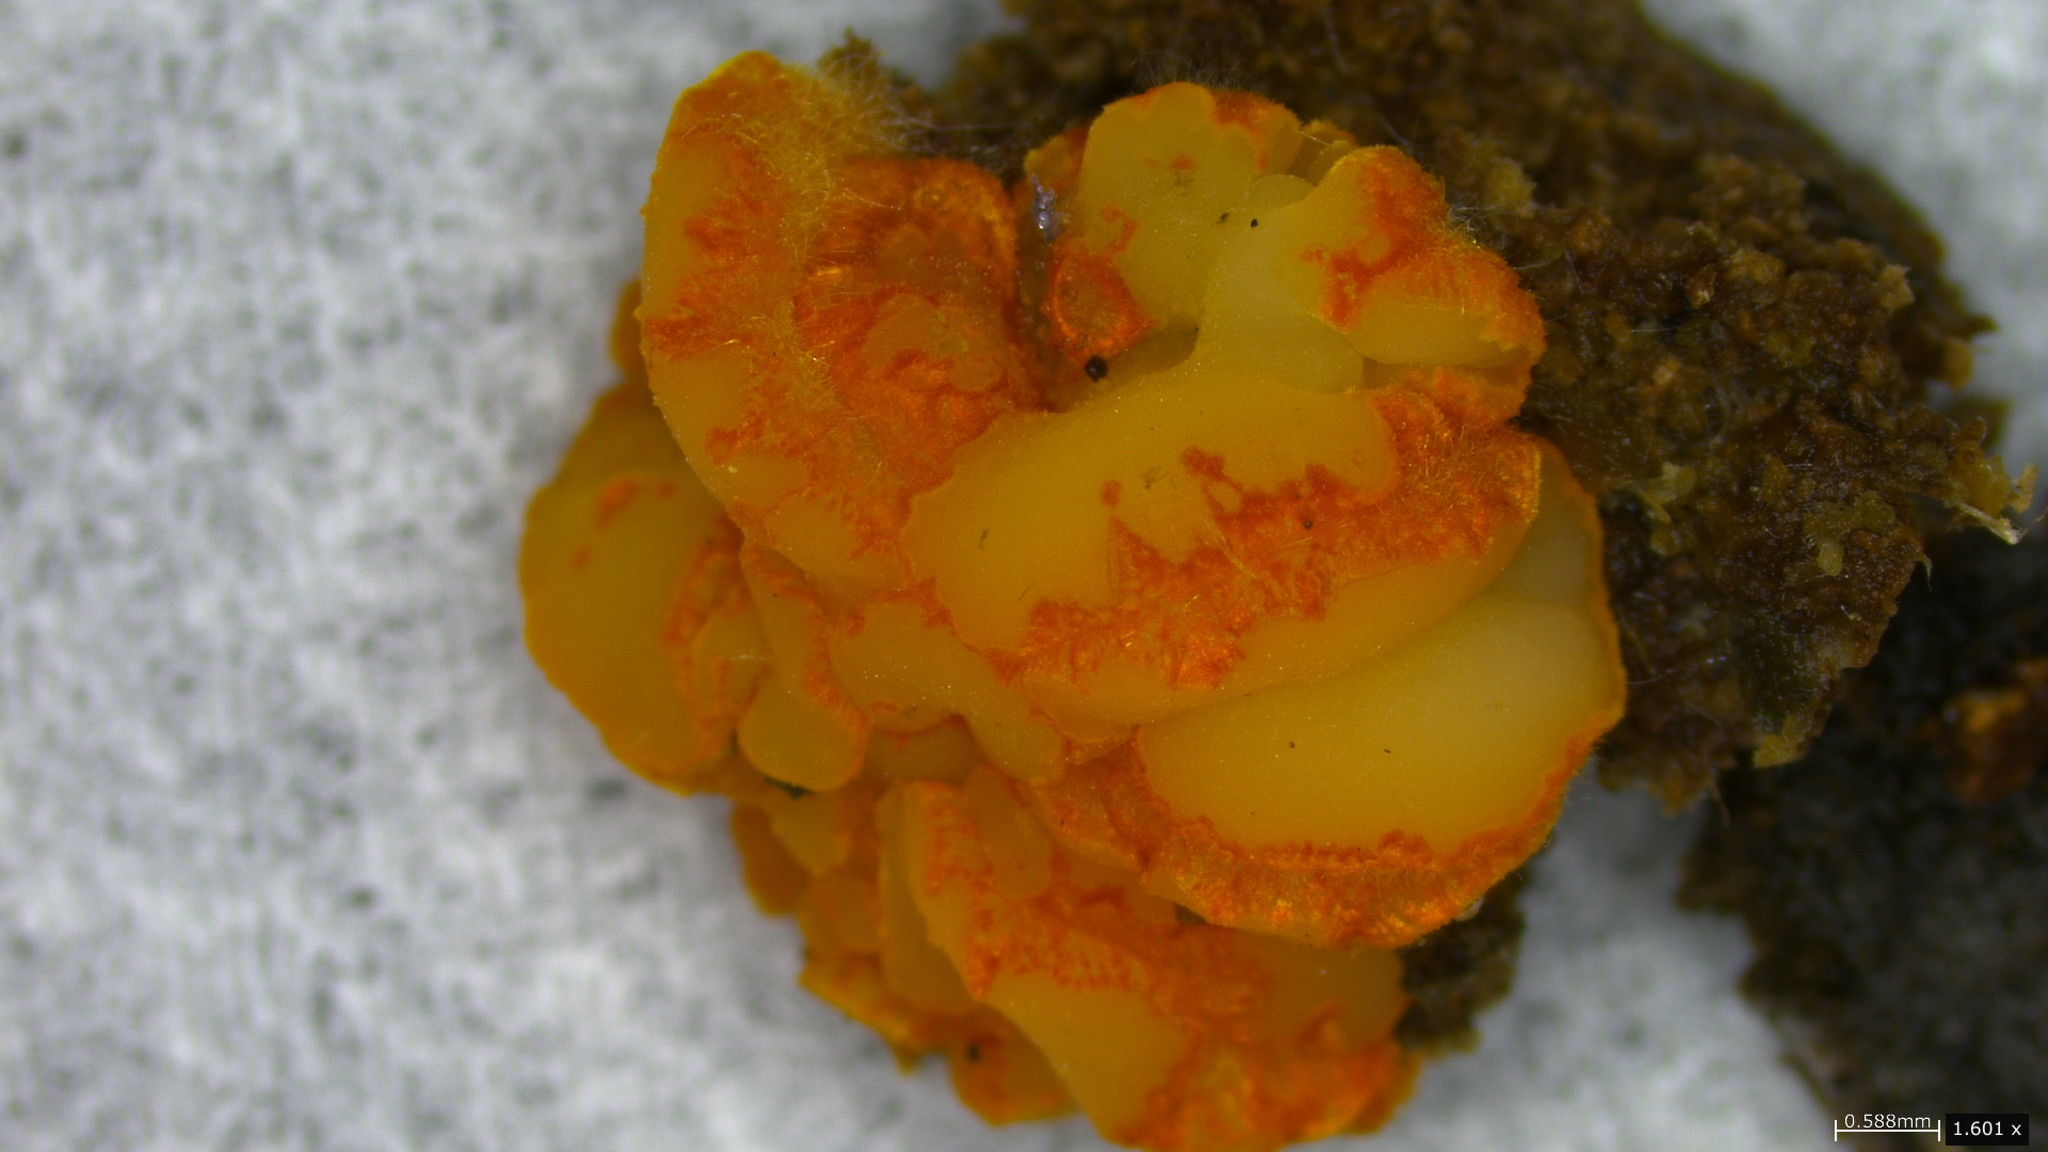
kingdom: Fungi
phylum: Ascomycota
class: Leotiomycetes
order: Helotiales
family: Arachnopezizaceae
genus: Arachnopeziza
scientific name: Arachnopeziza aurelia
